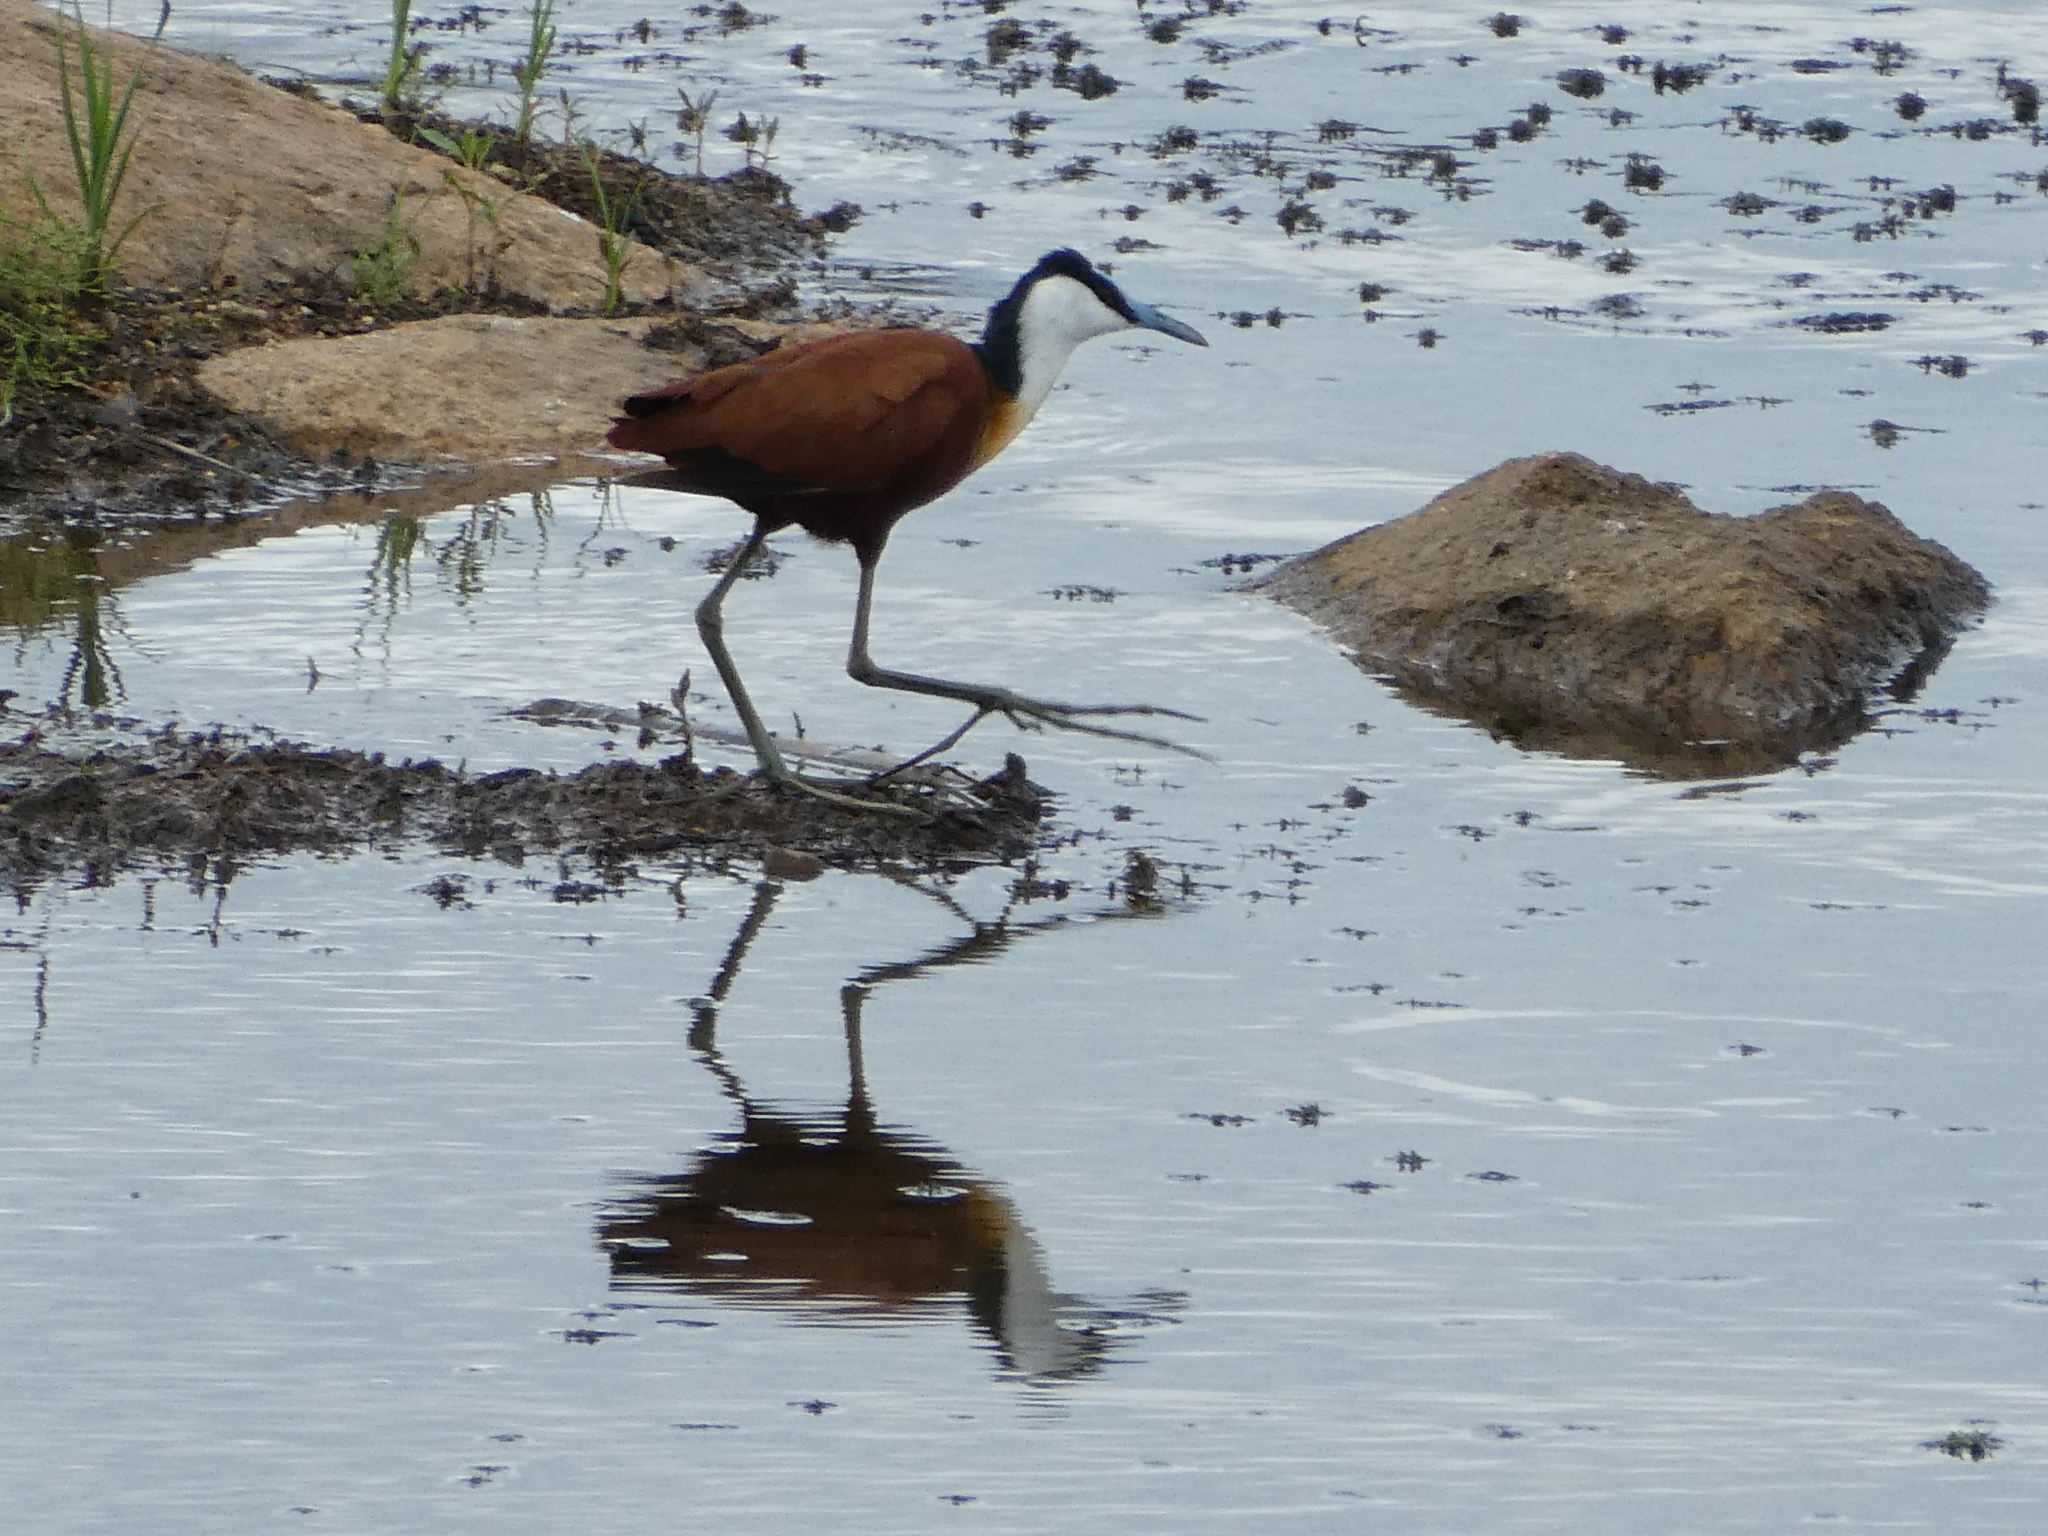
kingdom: Animalia
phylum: Chordata
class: Aves
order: Charadriiformes
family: Jacanidae
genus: Actophilornis
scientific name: Actophilornis africanus
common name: African jacana
